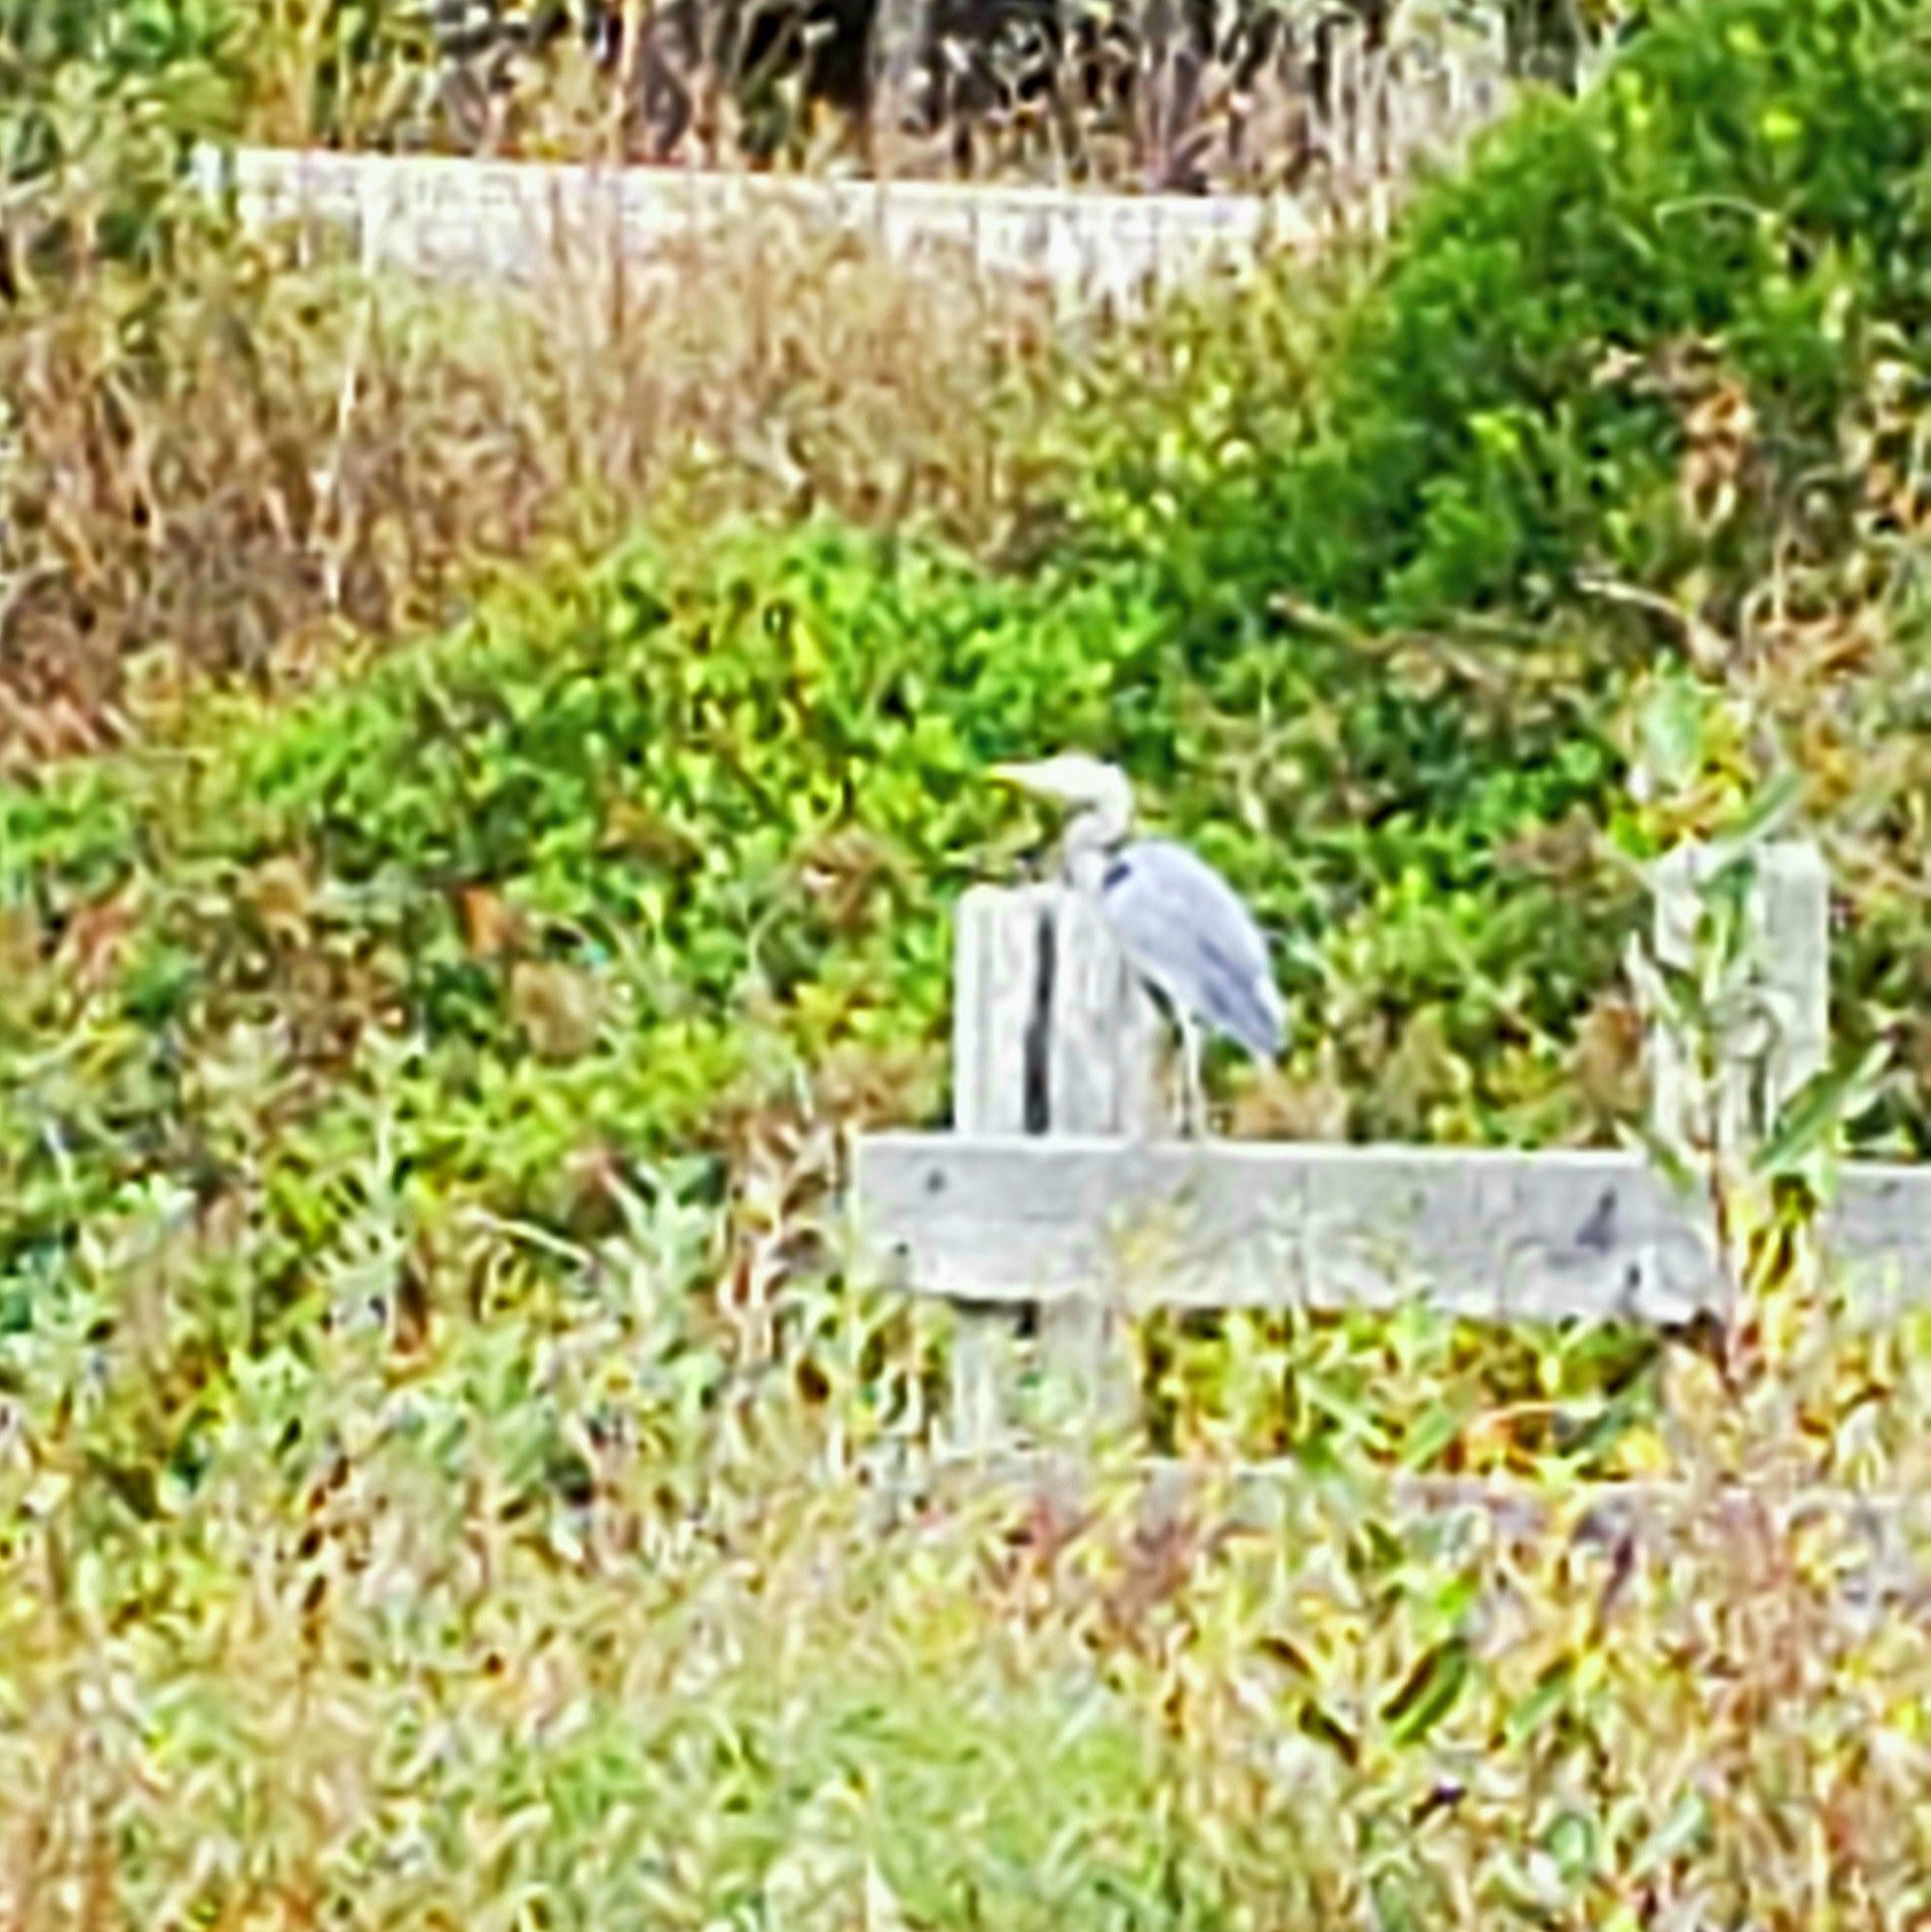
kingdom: Animalia
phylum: Chordata
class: Aves
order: Pelecaniformes
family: Ardeidae
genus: Ardea
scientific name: Ardea herodias
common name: Great blue heron
